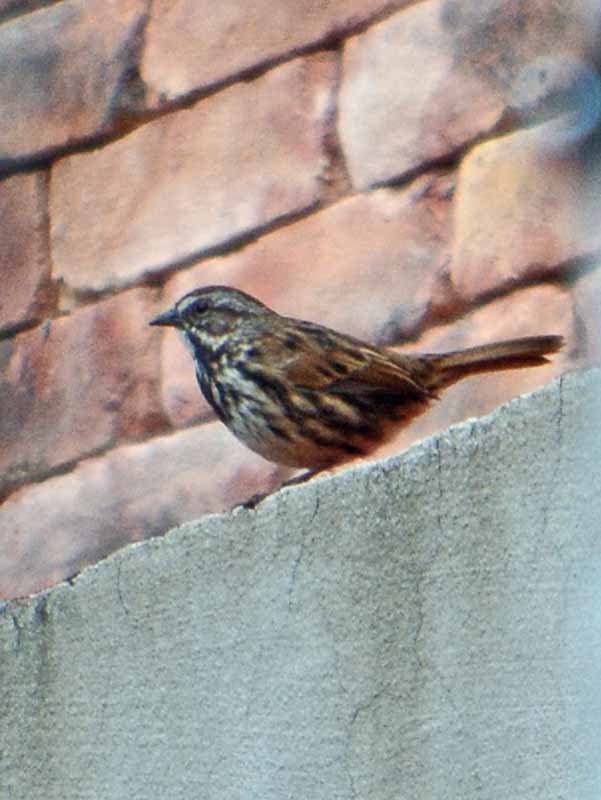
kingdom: Animalia
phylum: Chordata
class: Aves
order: Passeriformes
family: Passerellidae
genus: Melospiza
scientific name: Melospiza melodia
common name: Song sparrow
